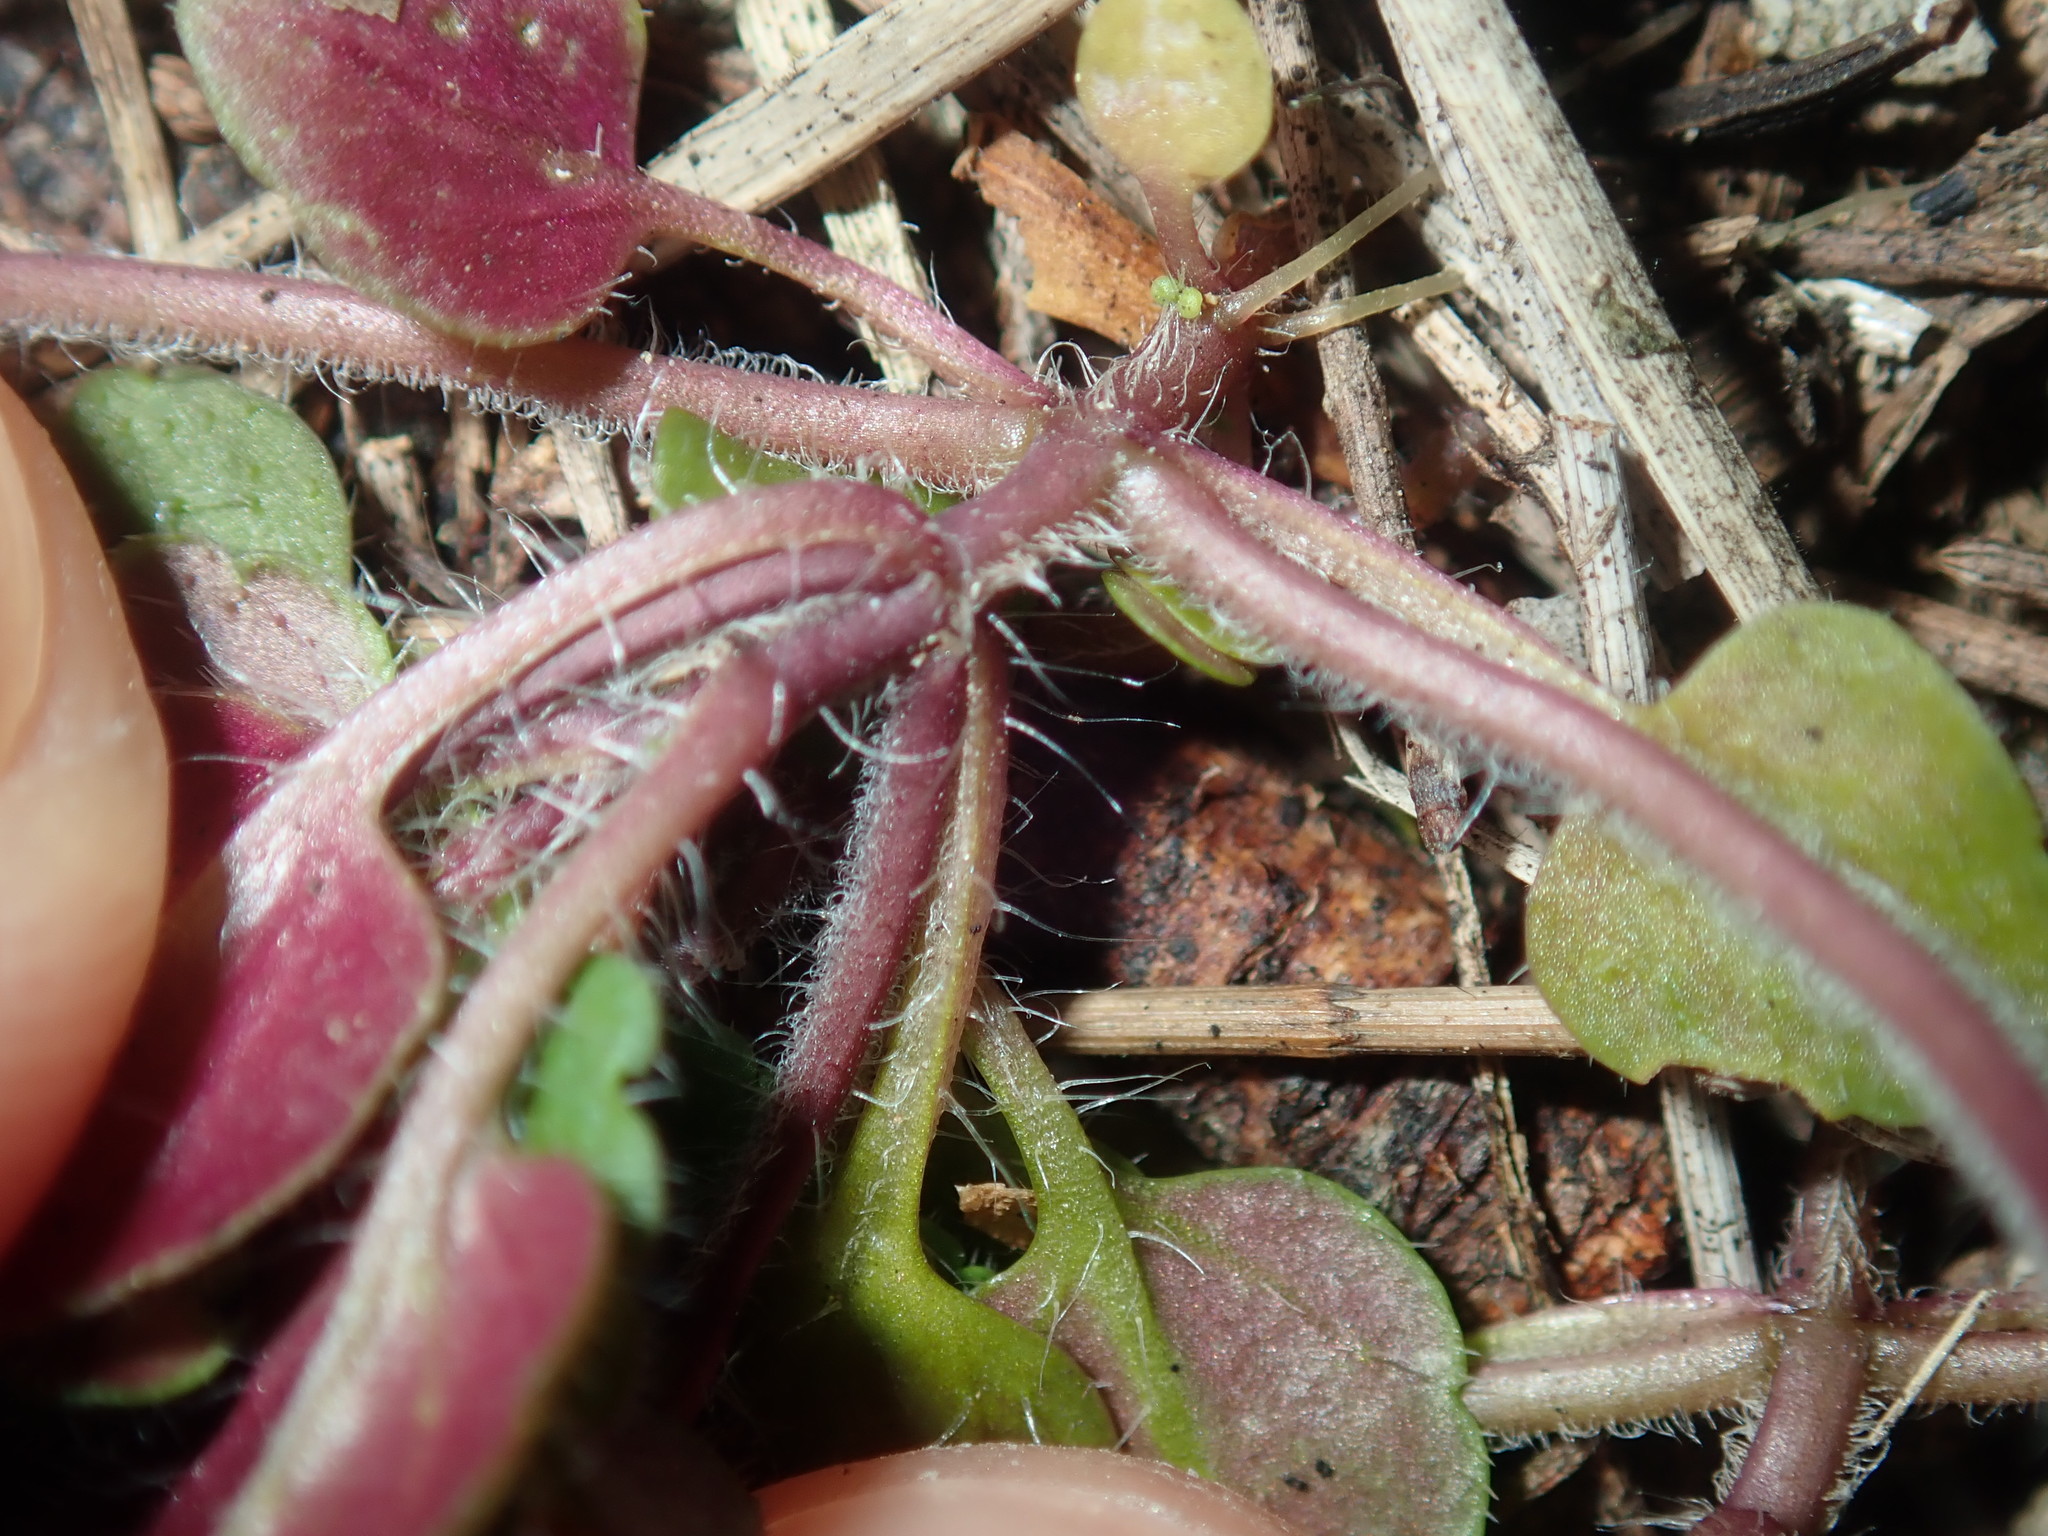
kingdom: Plantae
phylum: Tracheophyta
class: Magnoliopsida
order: Lamiales
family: Plantaginaceae
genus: Veronica
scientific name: Veronica arvensis
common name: Corn speedwell
